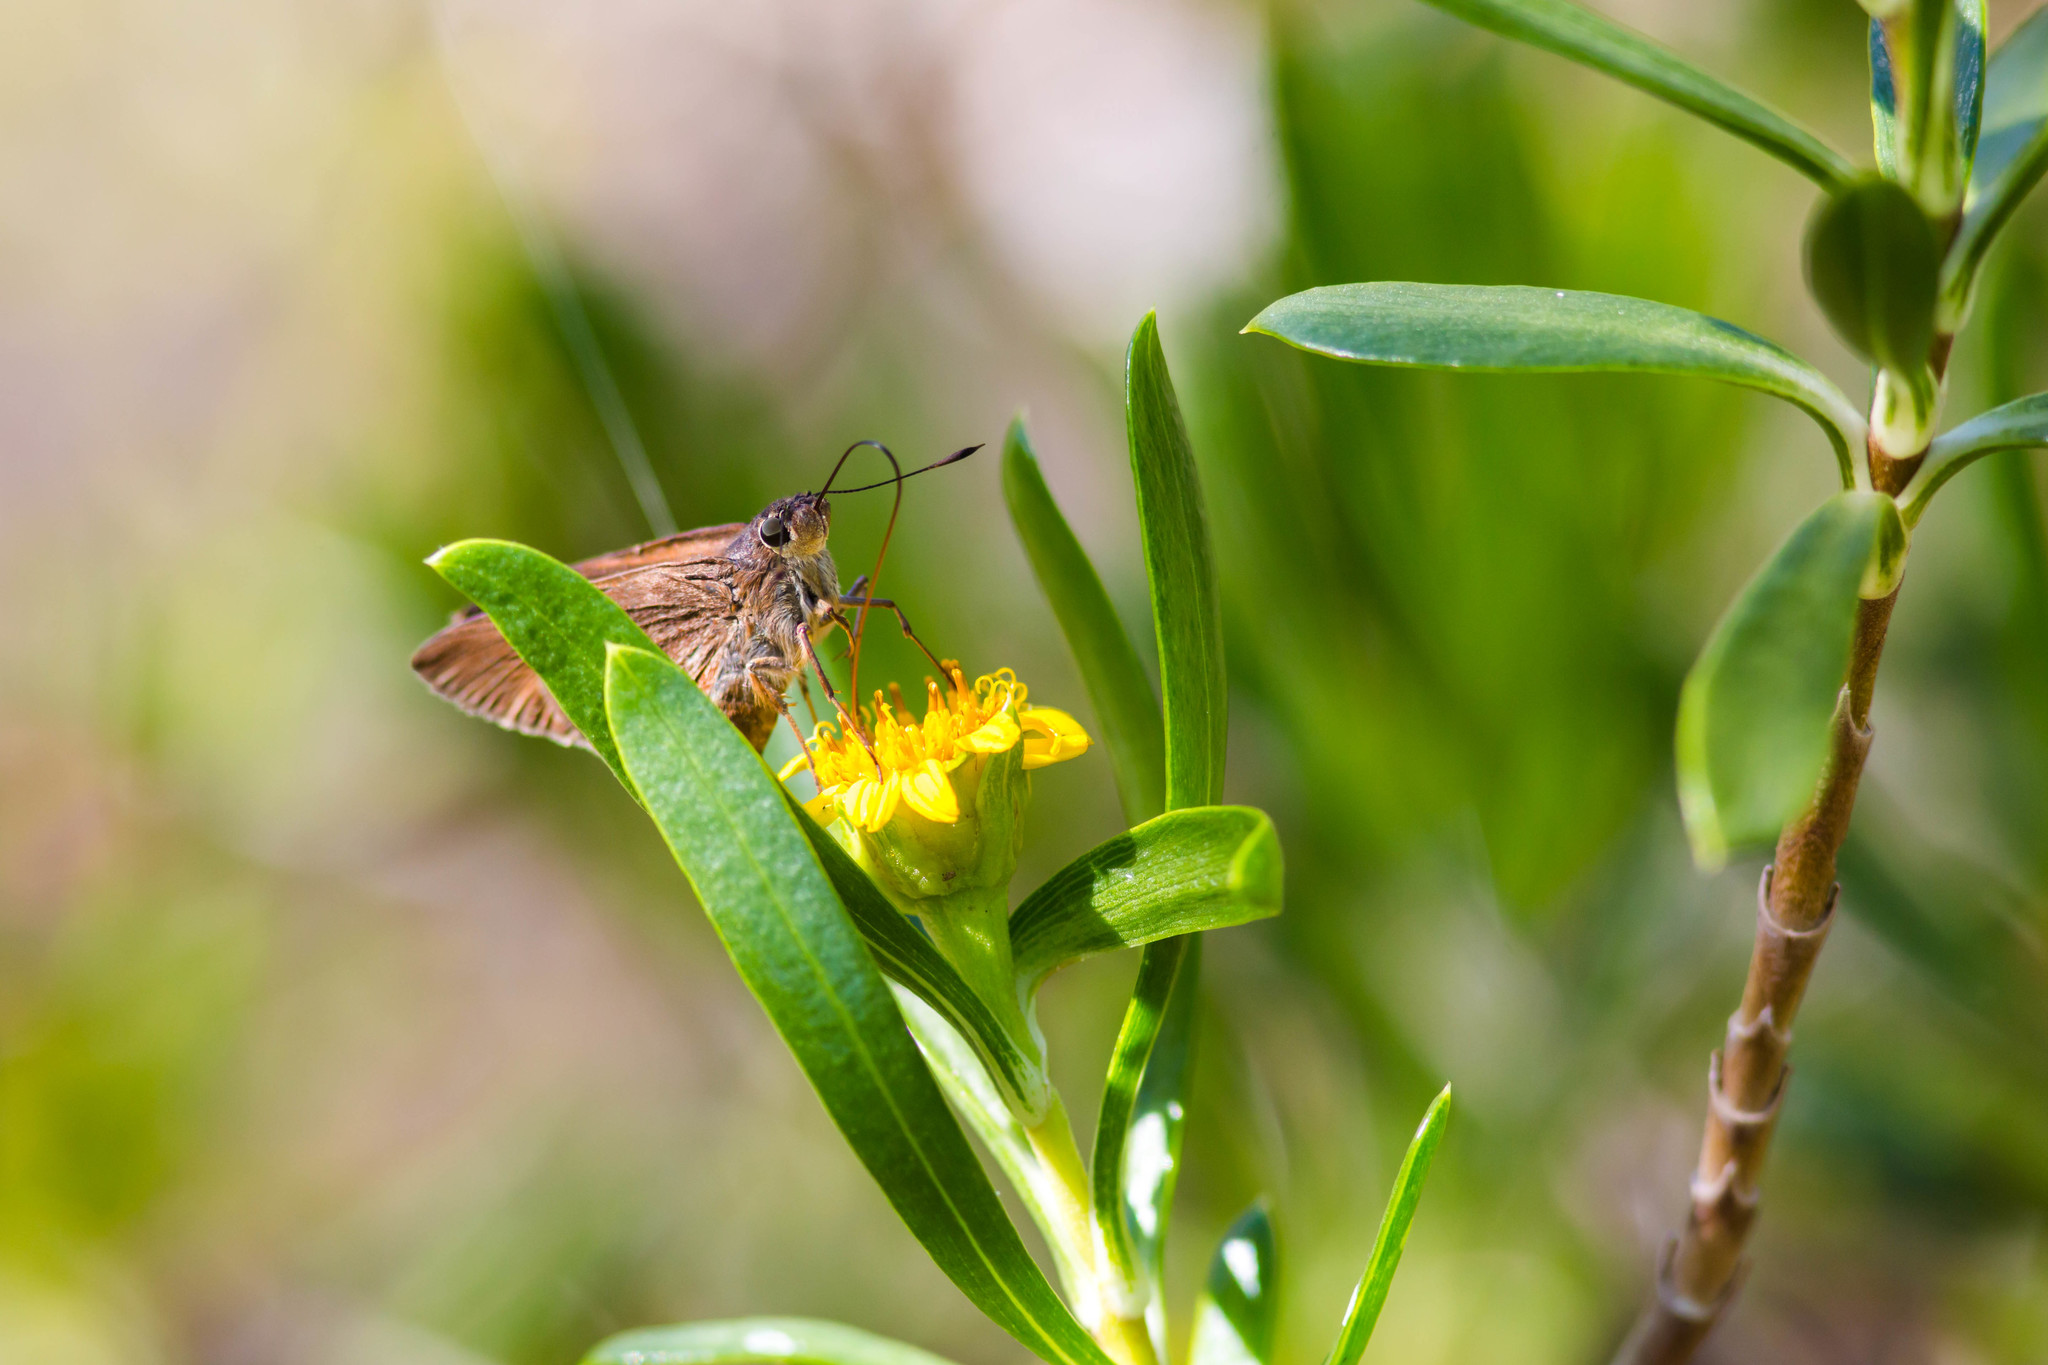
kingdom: Animalia
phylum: Arthropoda
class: Insecta
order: Lepidoptera
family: Hesperiidae
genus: Asbolis
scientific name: Asbolis capucinus
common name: Monk skipper
